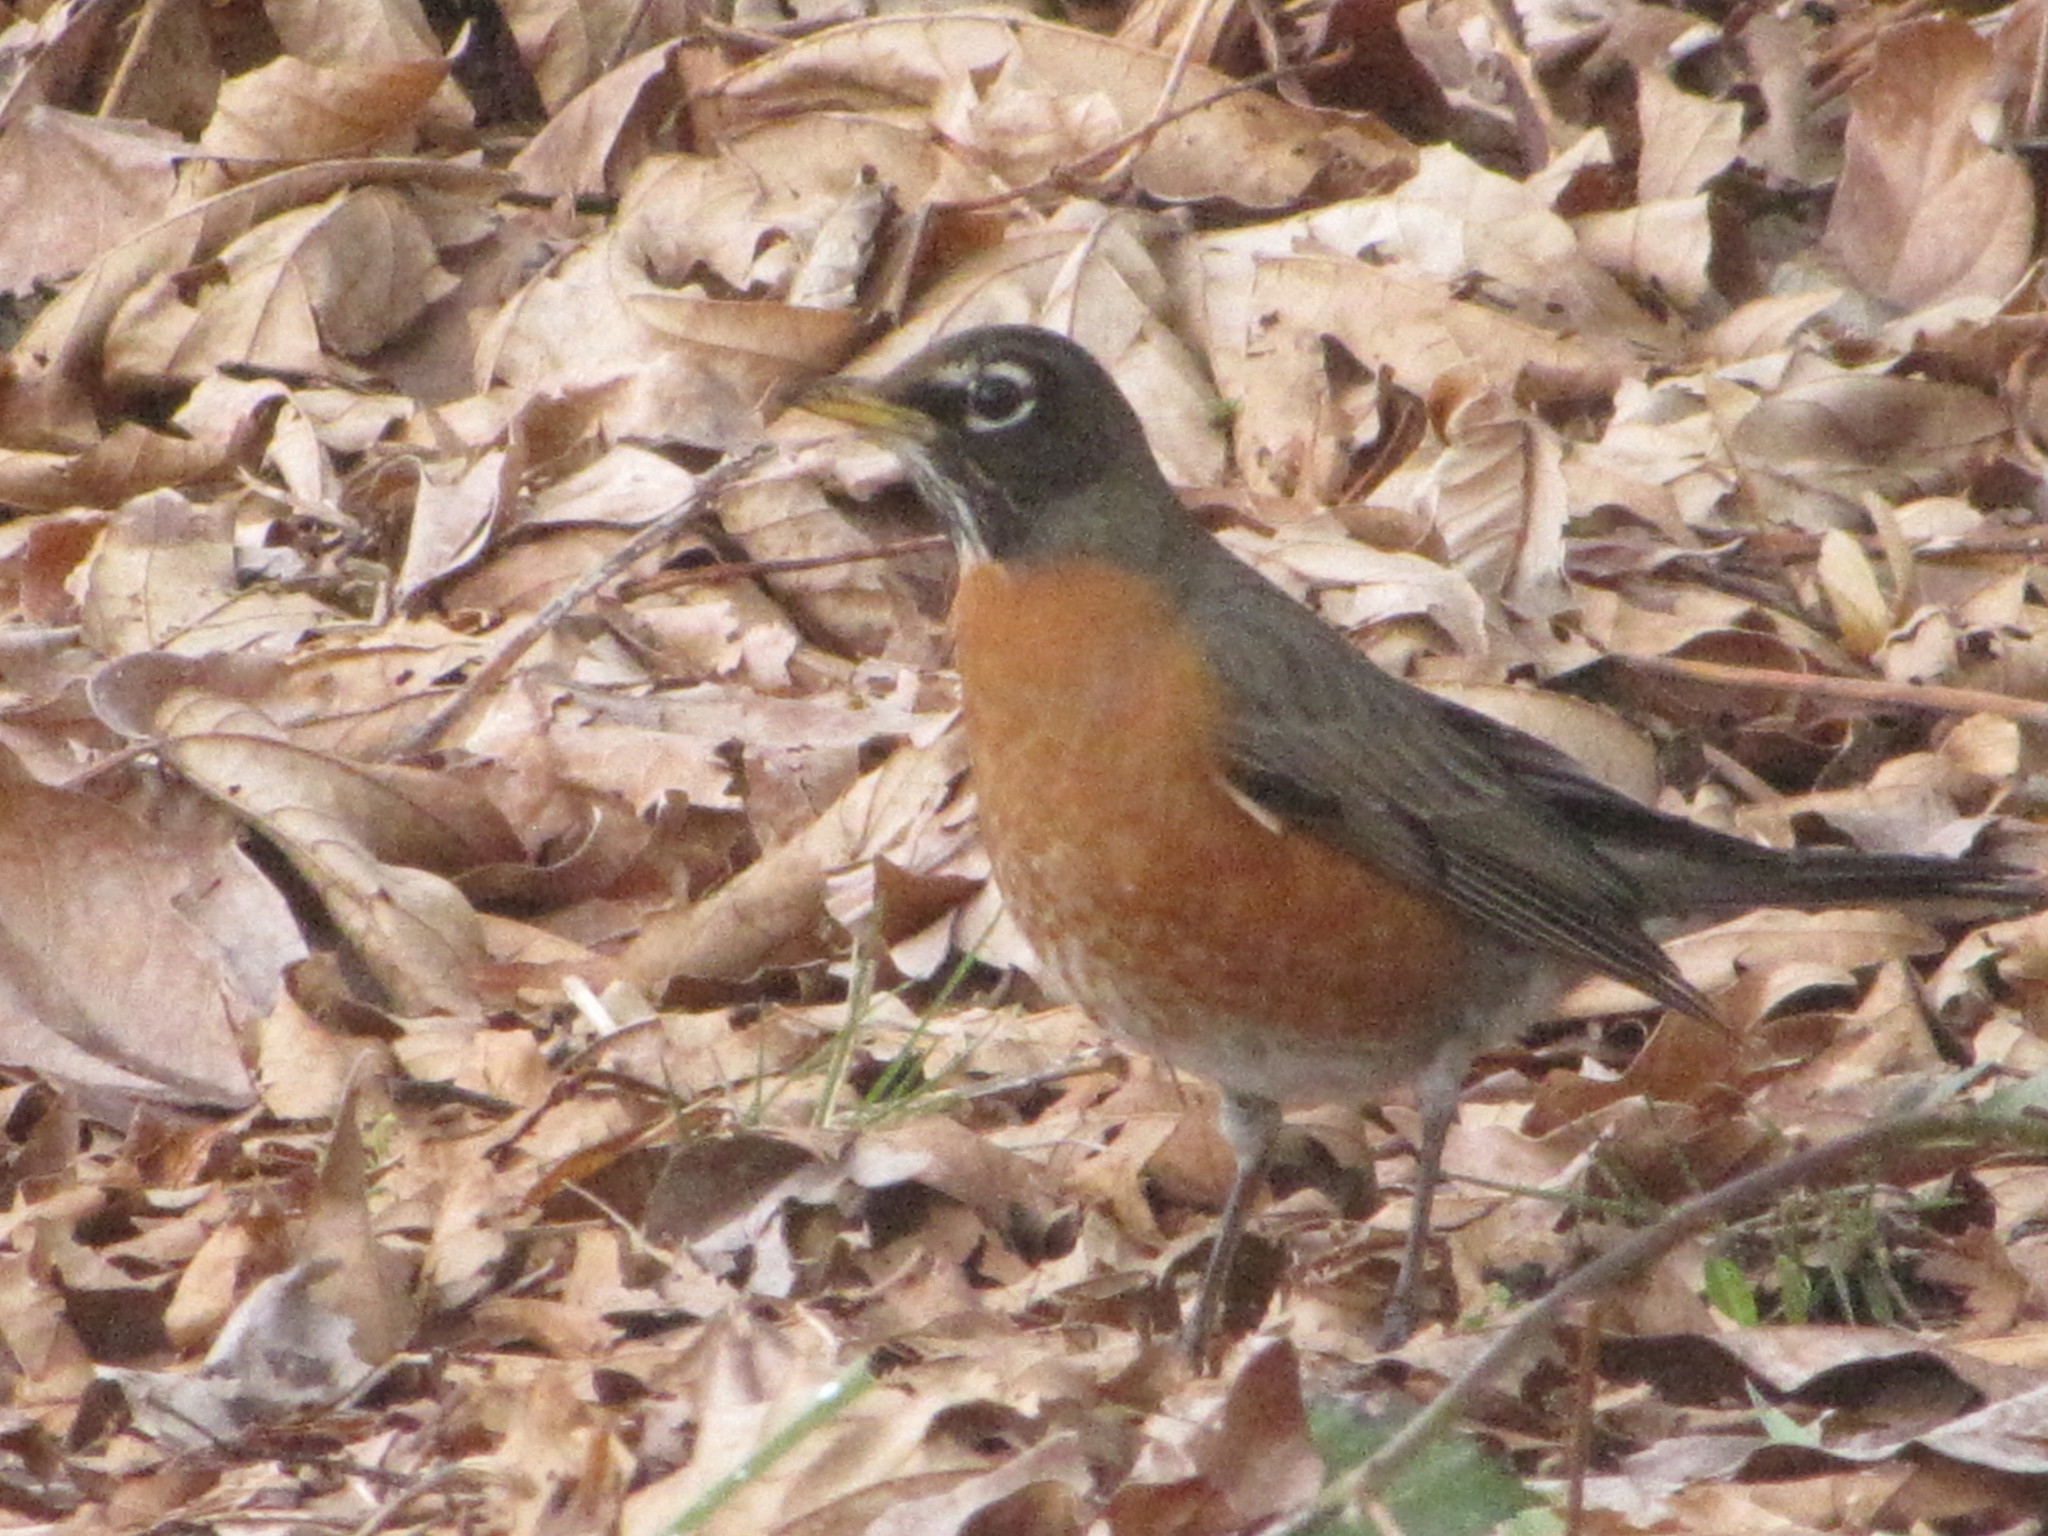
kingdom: Animalia
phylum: Chordata
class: Aves
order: Passeriformes
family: Turdidae
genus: Turdus
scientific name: Turdus migratorius
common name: American robin
